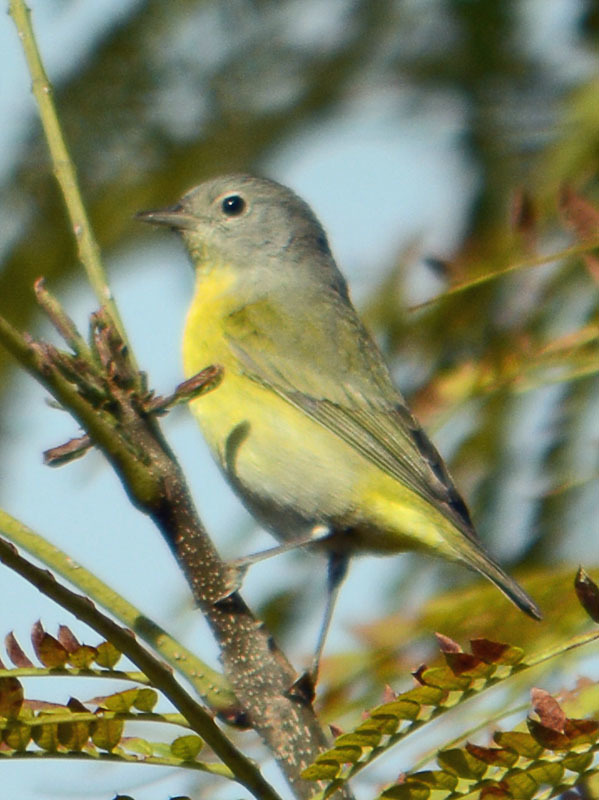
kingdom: Animalia
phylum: Chordata
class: Aves
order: Passeriformes
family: Parulidae
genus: Leiothlypis
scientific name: Leiothlypis ruficapilla
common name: Nashville warbler
